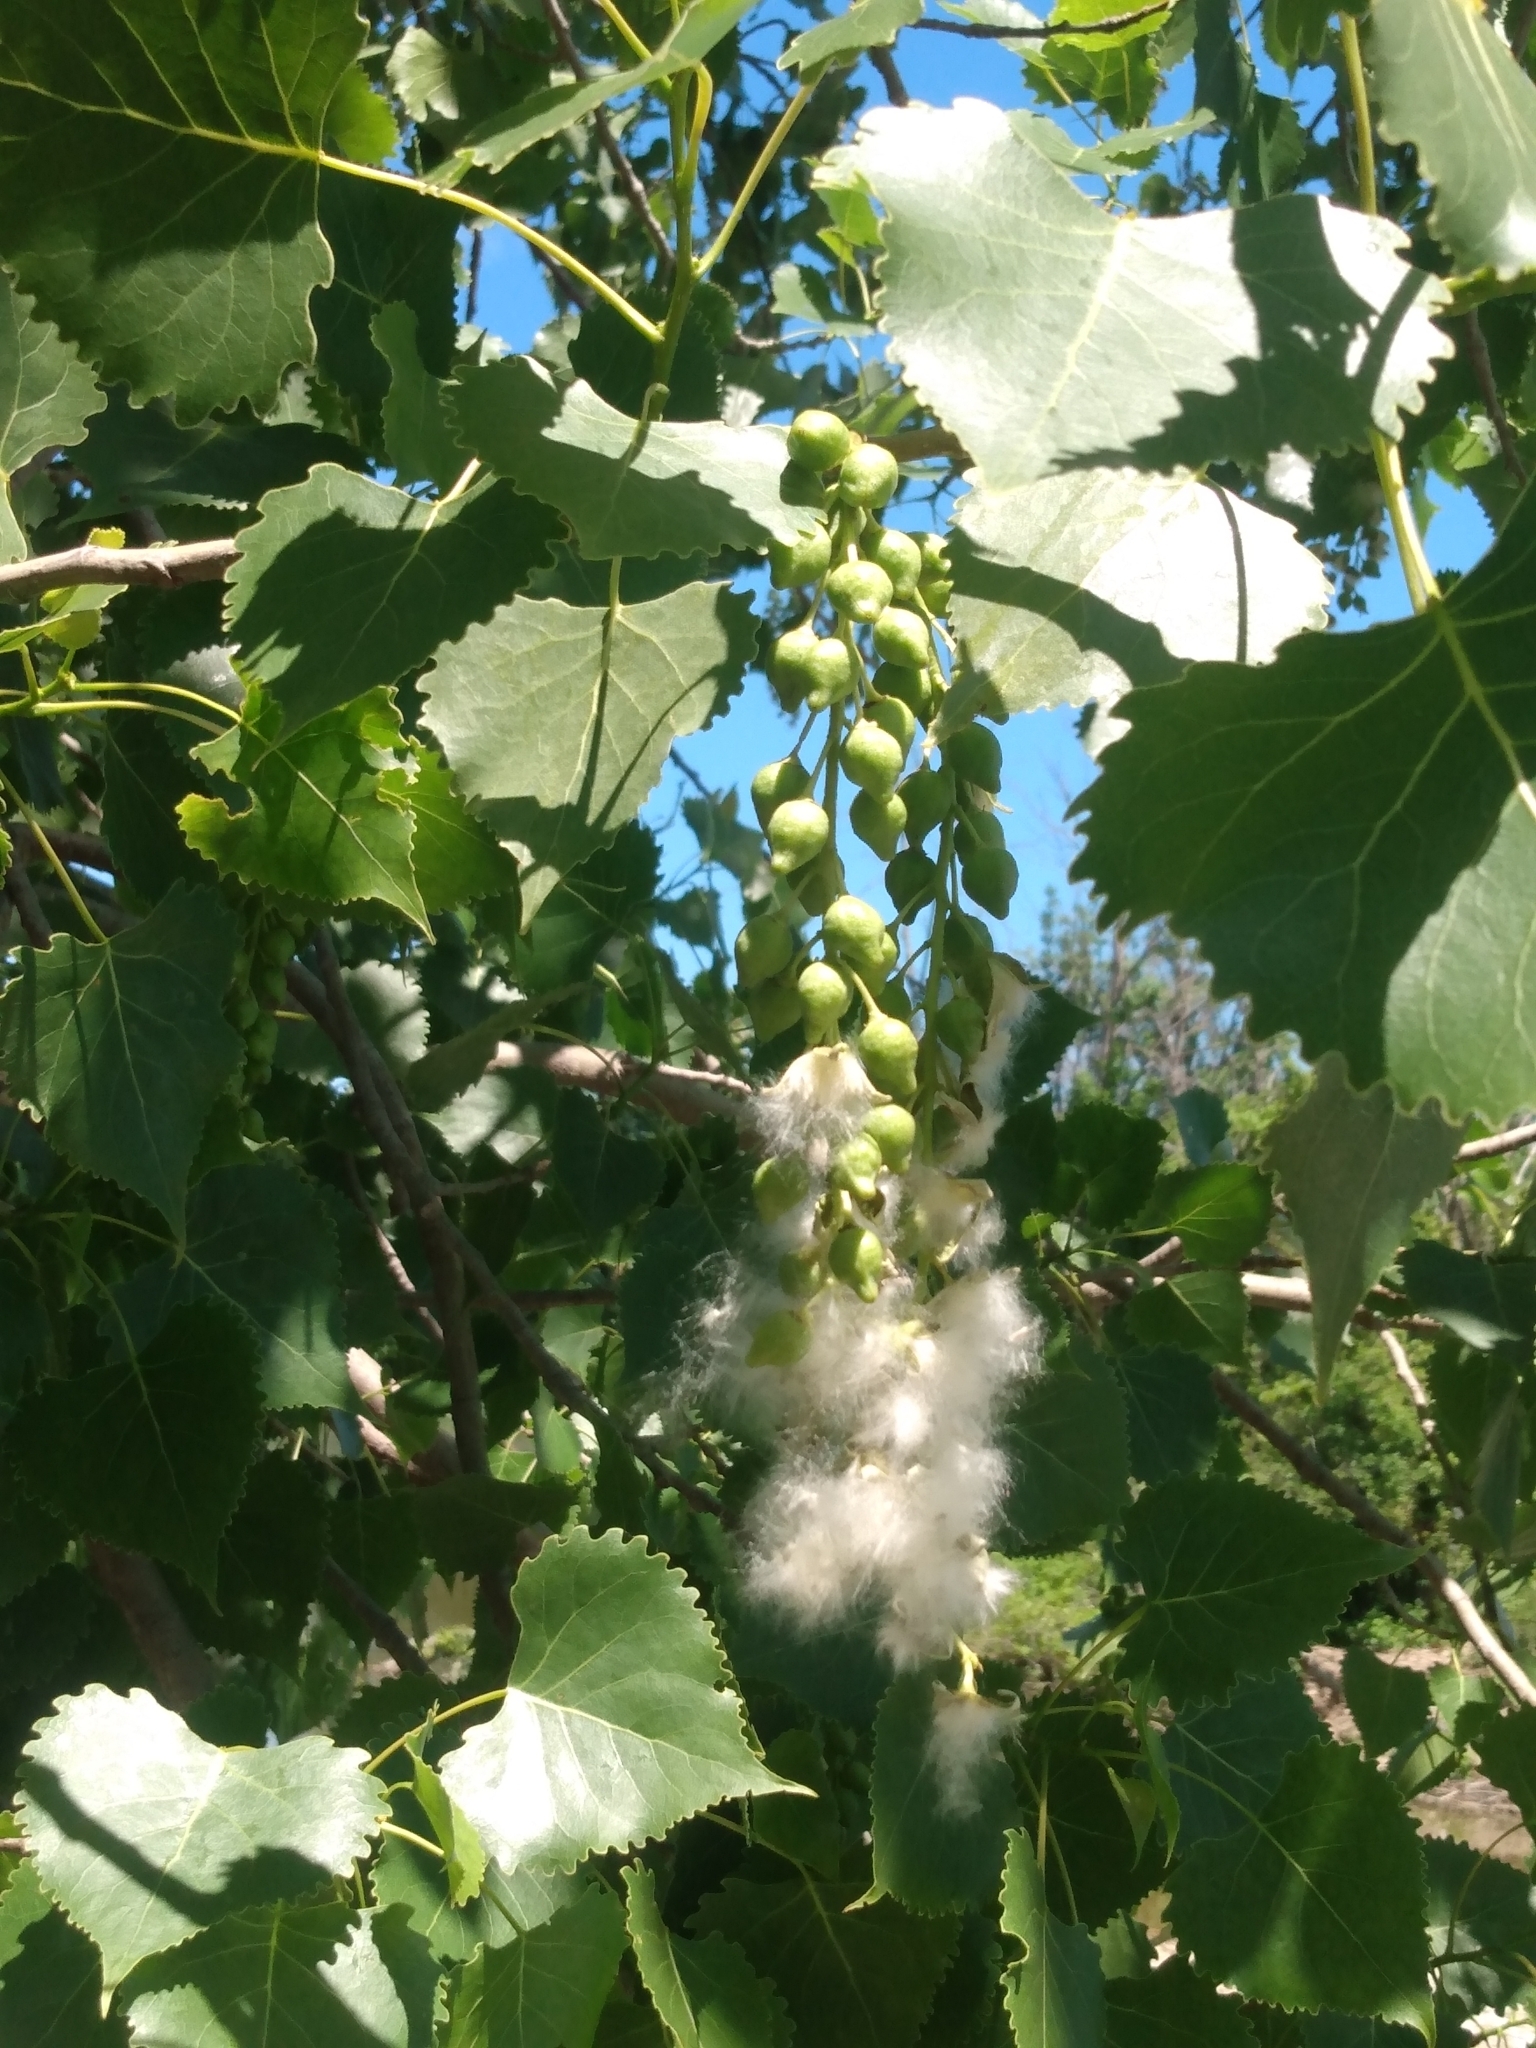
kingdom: Plantae
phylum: Tracheophyta
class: Magnoliopsida
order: Malpighiales
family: Salicaceae
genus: Populus
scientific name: Populus deltoides
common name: Eastern cottonwood
